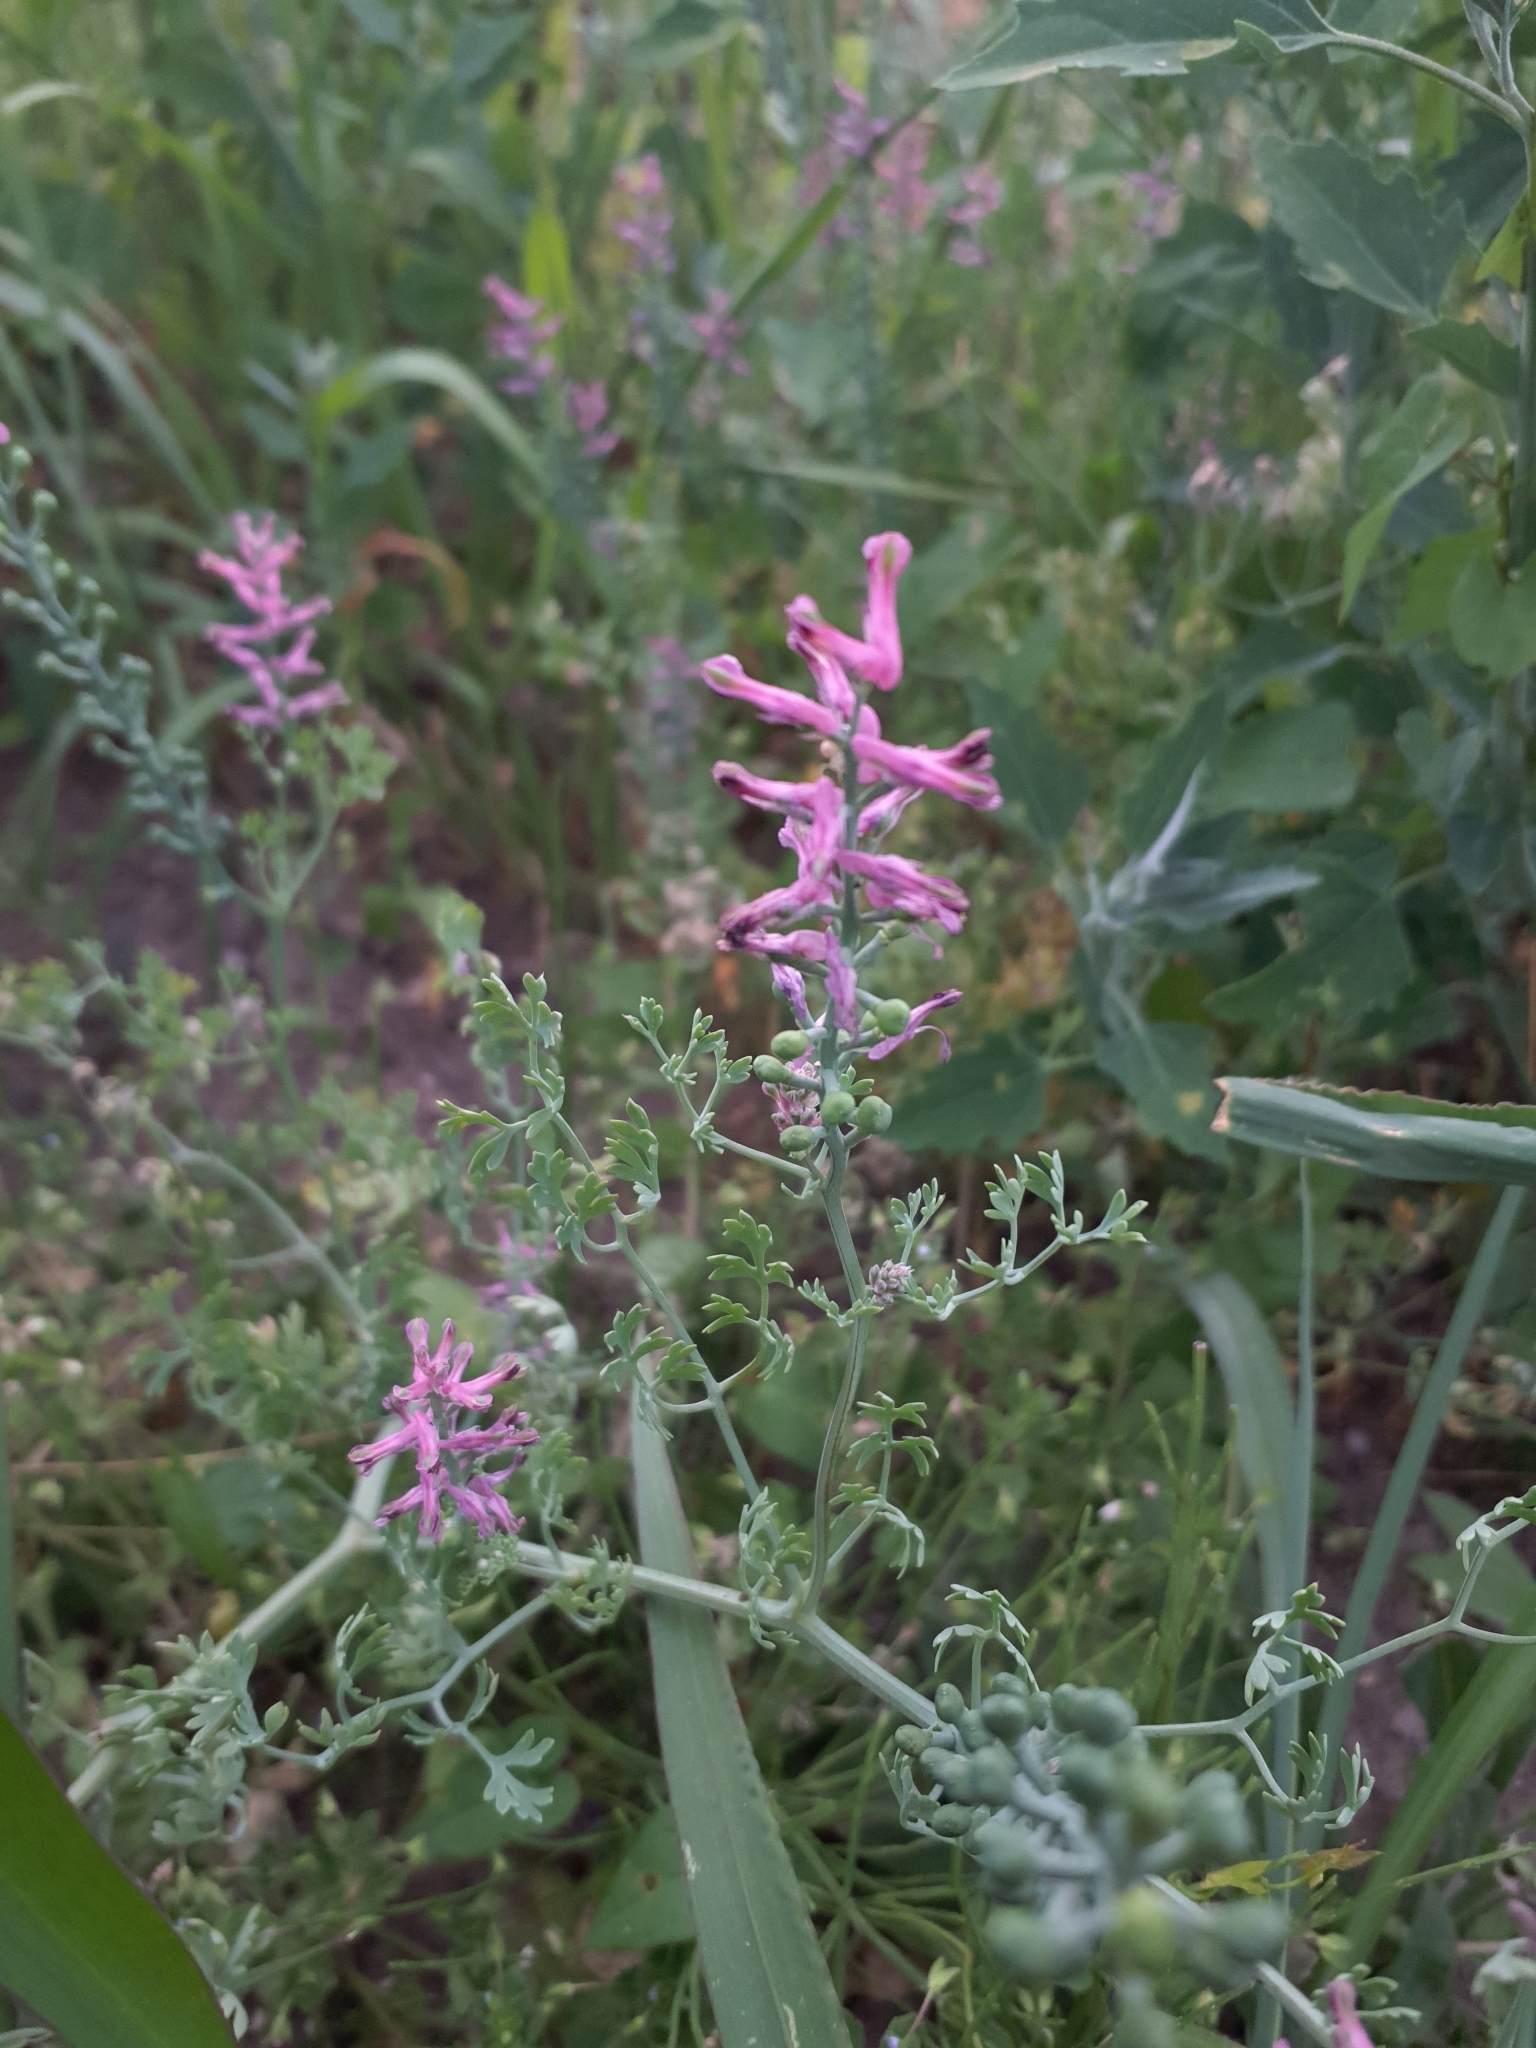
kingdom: Plantae
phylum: Tracheophyta
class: Magnoliopsida
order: Ranunculales
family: Papaveraceae
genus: Fumaria
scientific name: Fumaria officinalis
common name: Common fumitory
